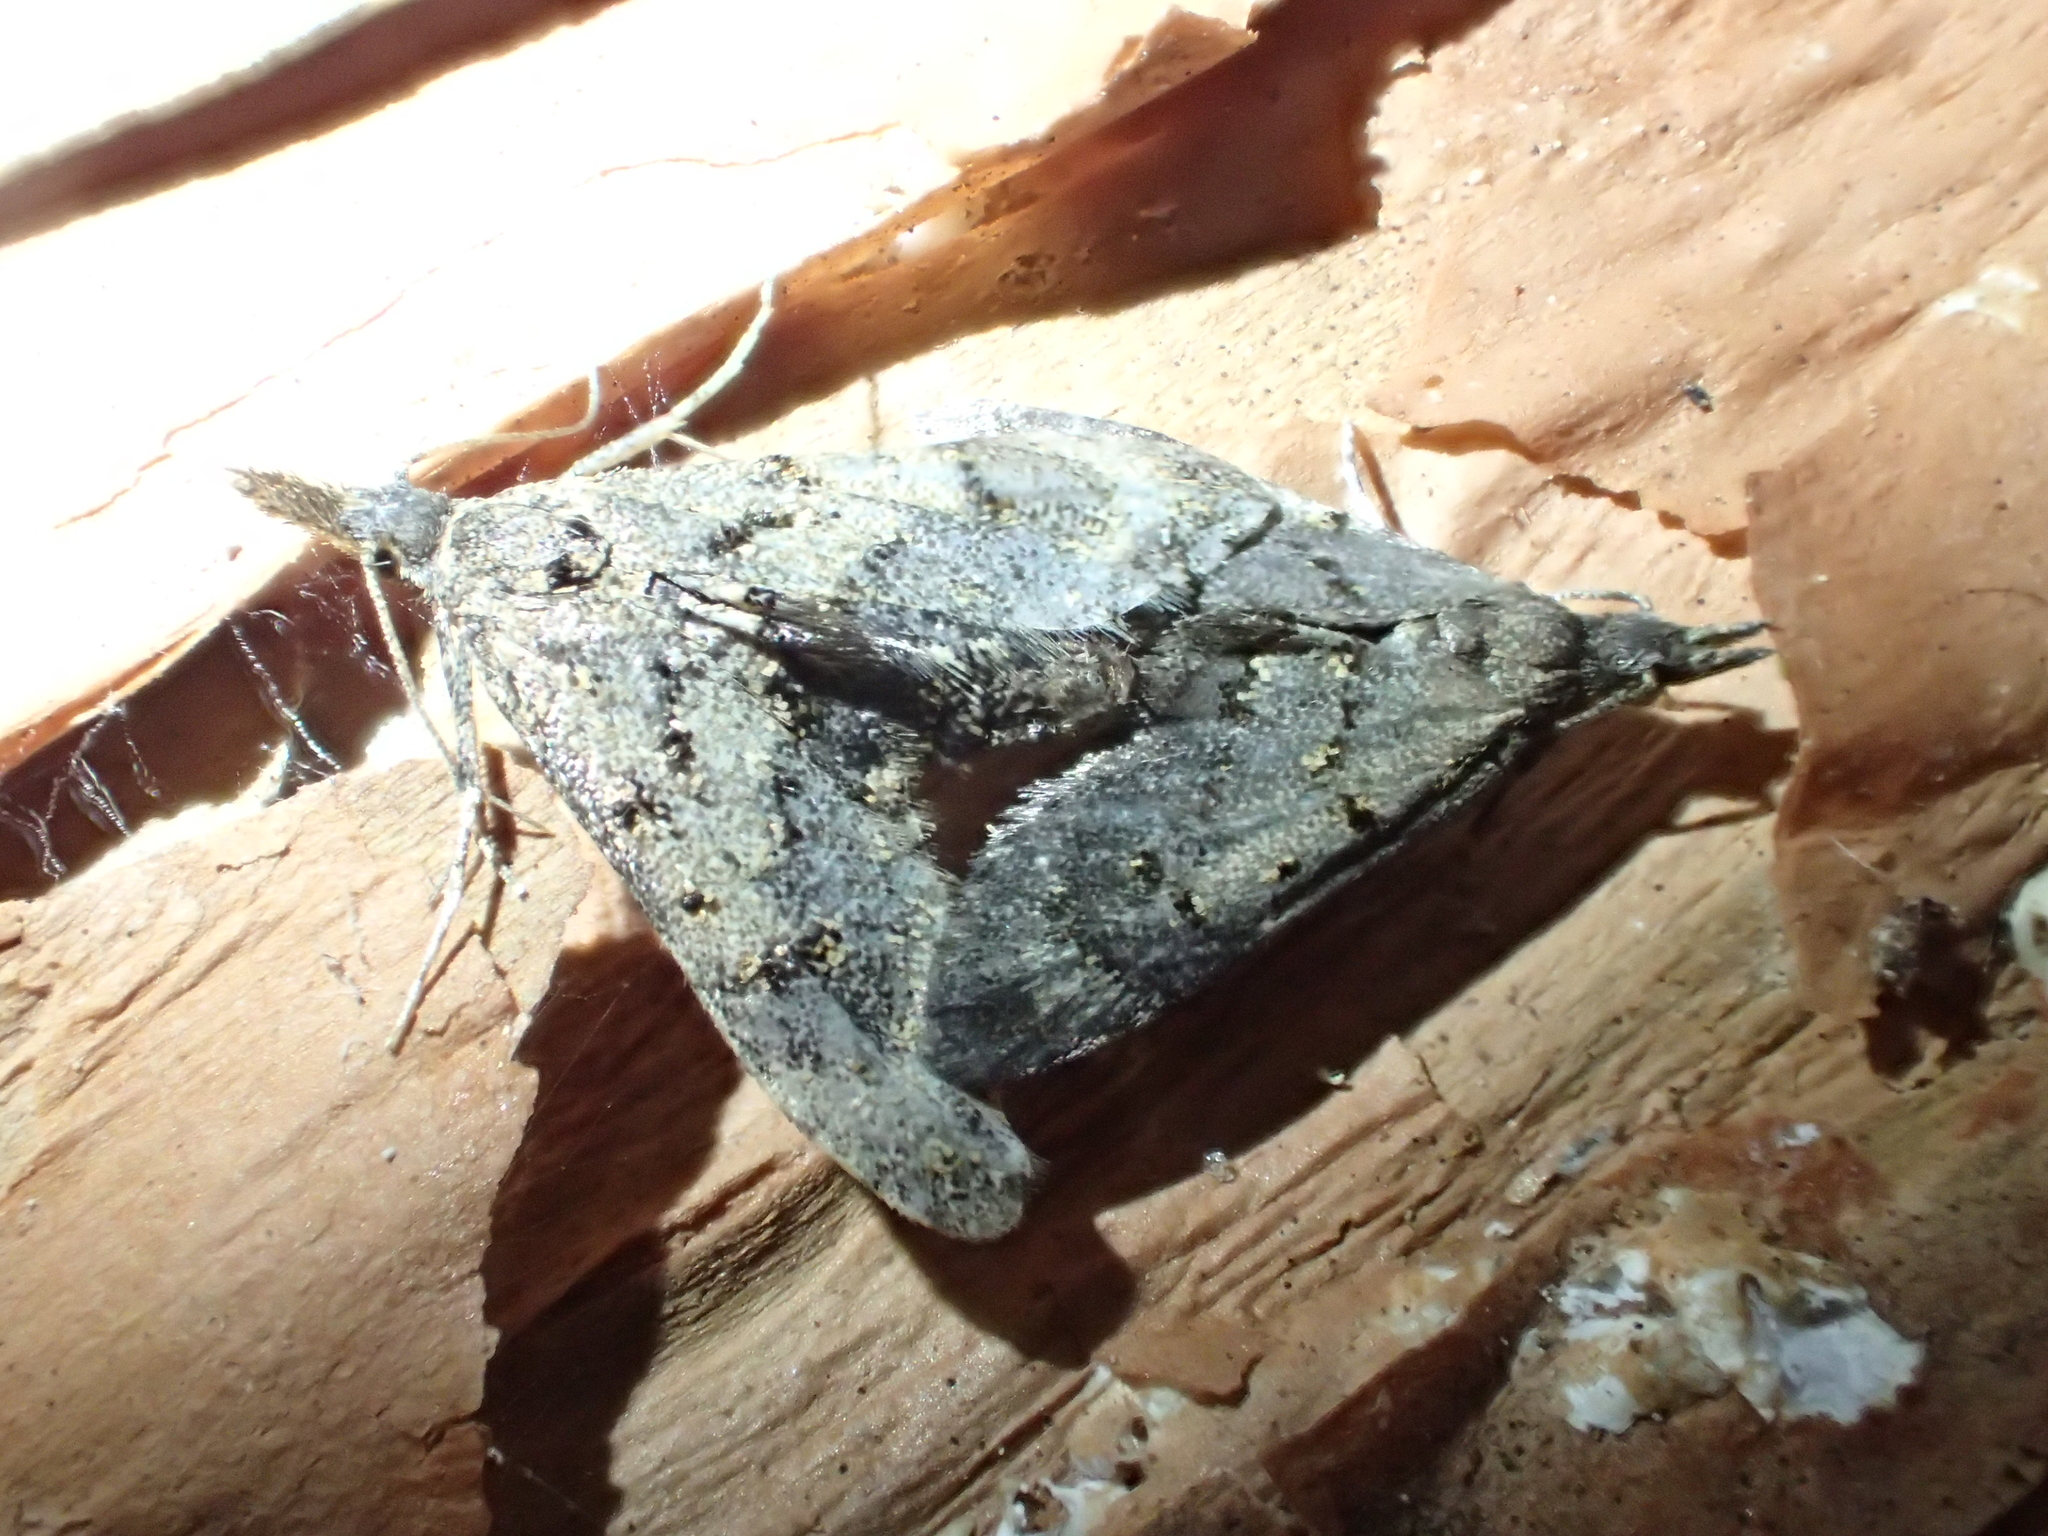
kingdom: Animalia
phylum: Arthropoda
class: Insecta
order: Lepidoptera
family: Copromorphidae
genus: Isonomeutis
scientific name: Isonomeutis amauropa
